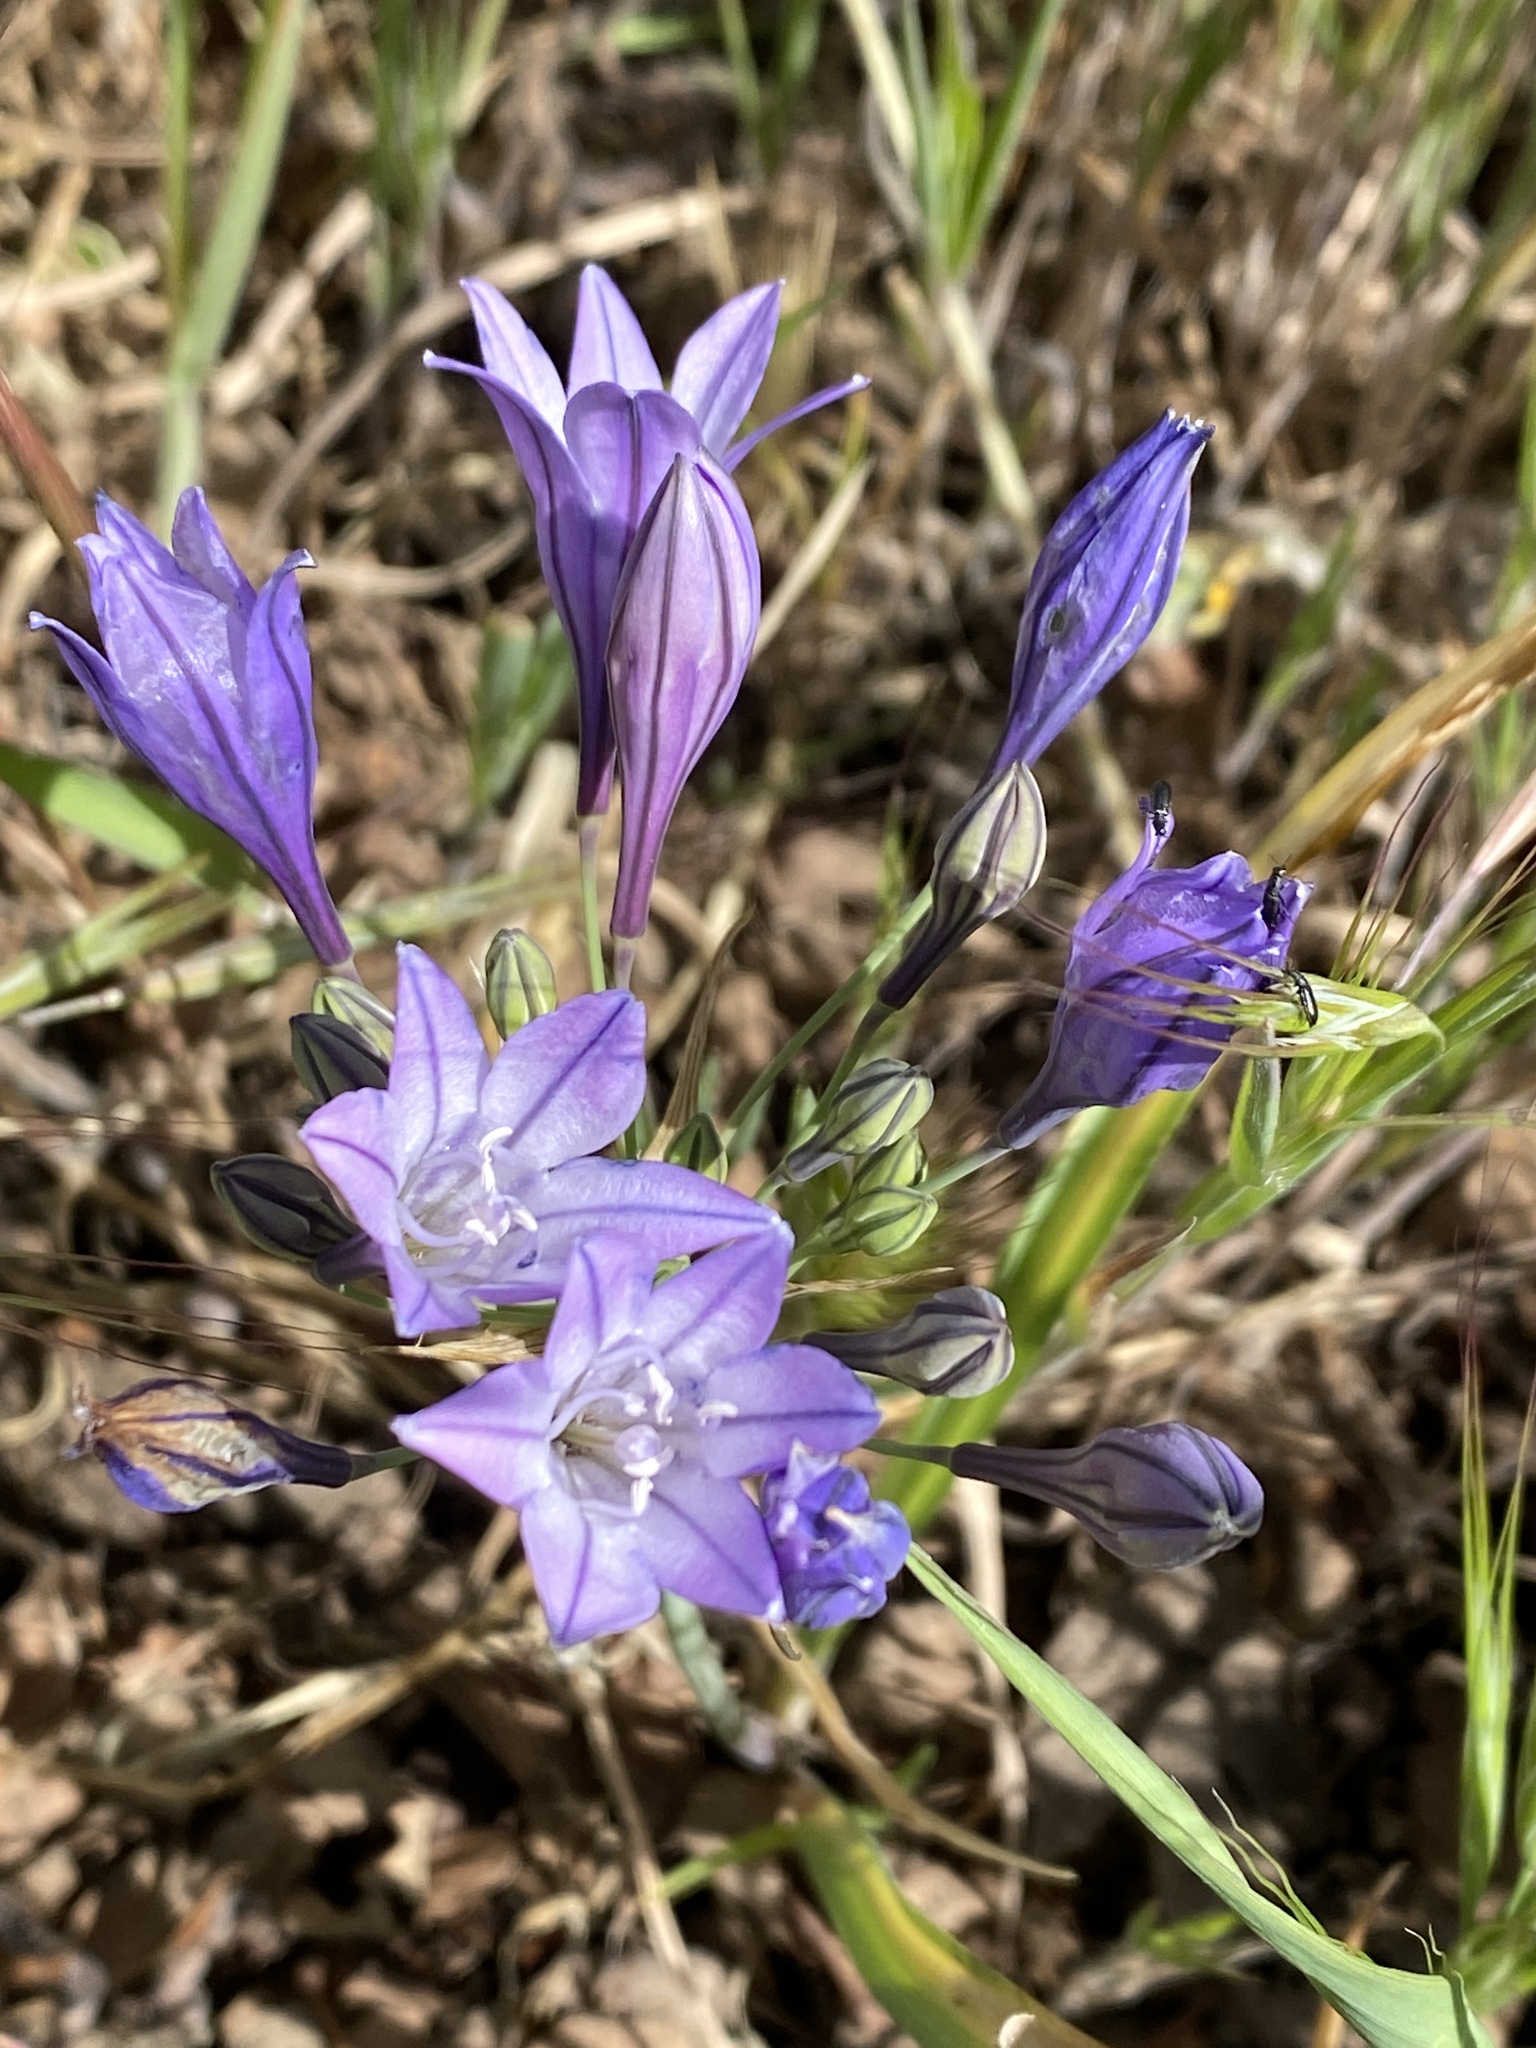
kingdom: Plantae
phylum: Tracheophyta
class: Liliopsida
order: Asparagales
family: Asparagaceae
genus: Triteleia
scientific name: Triteleia laxa
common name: Triplet-lily
